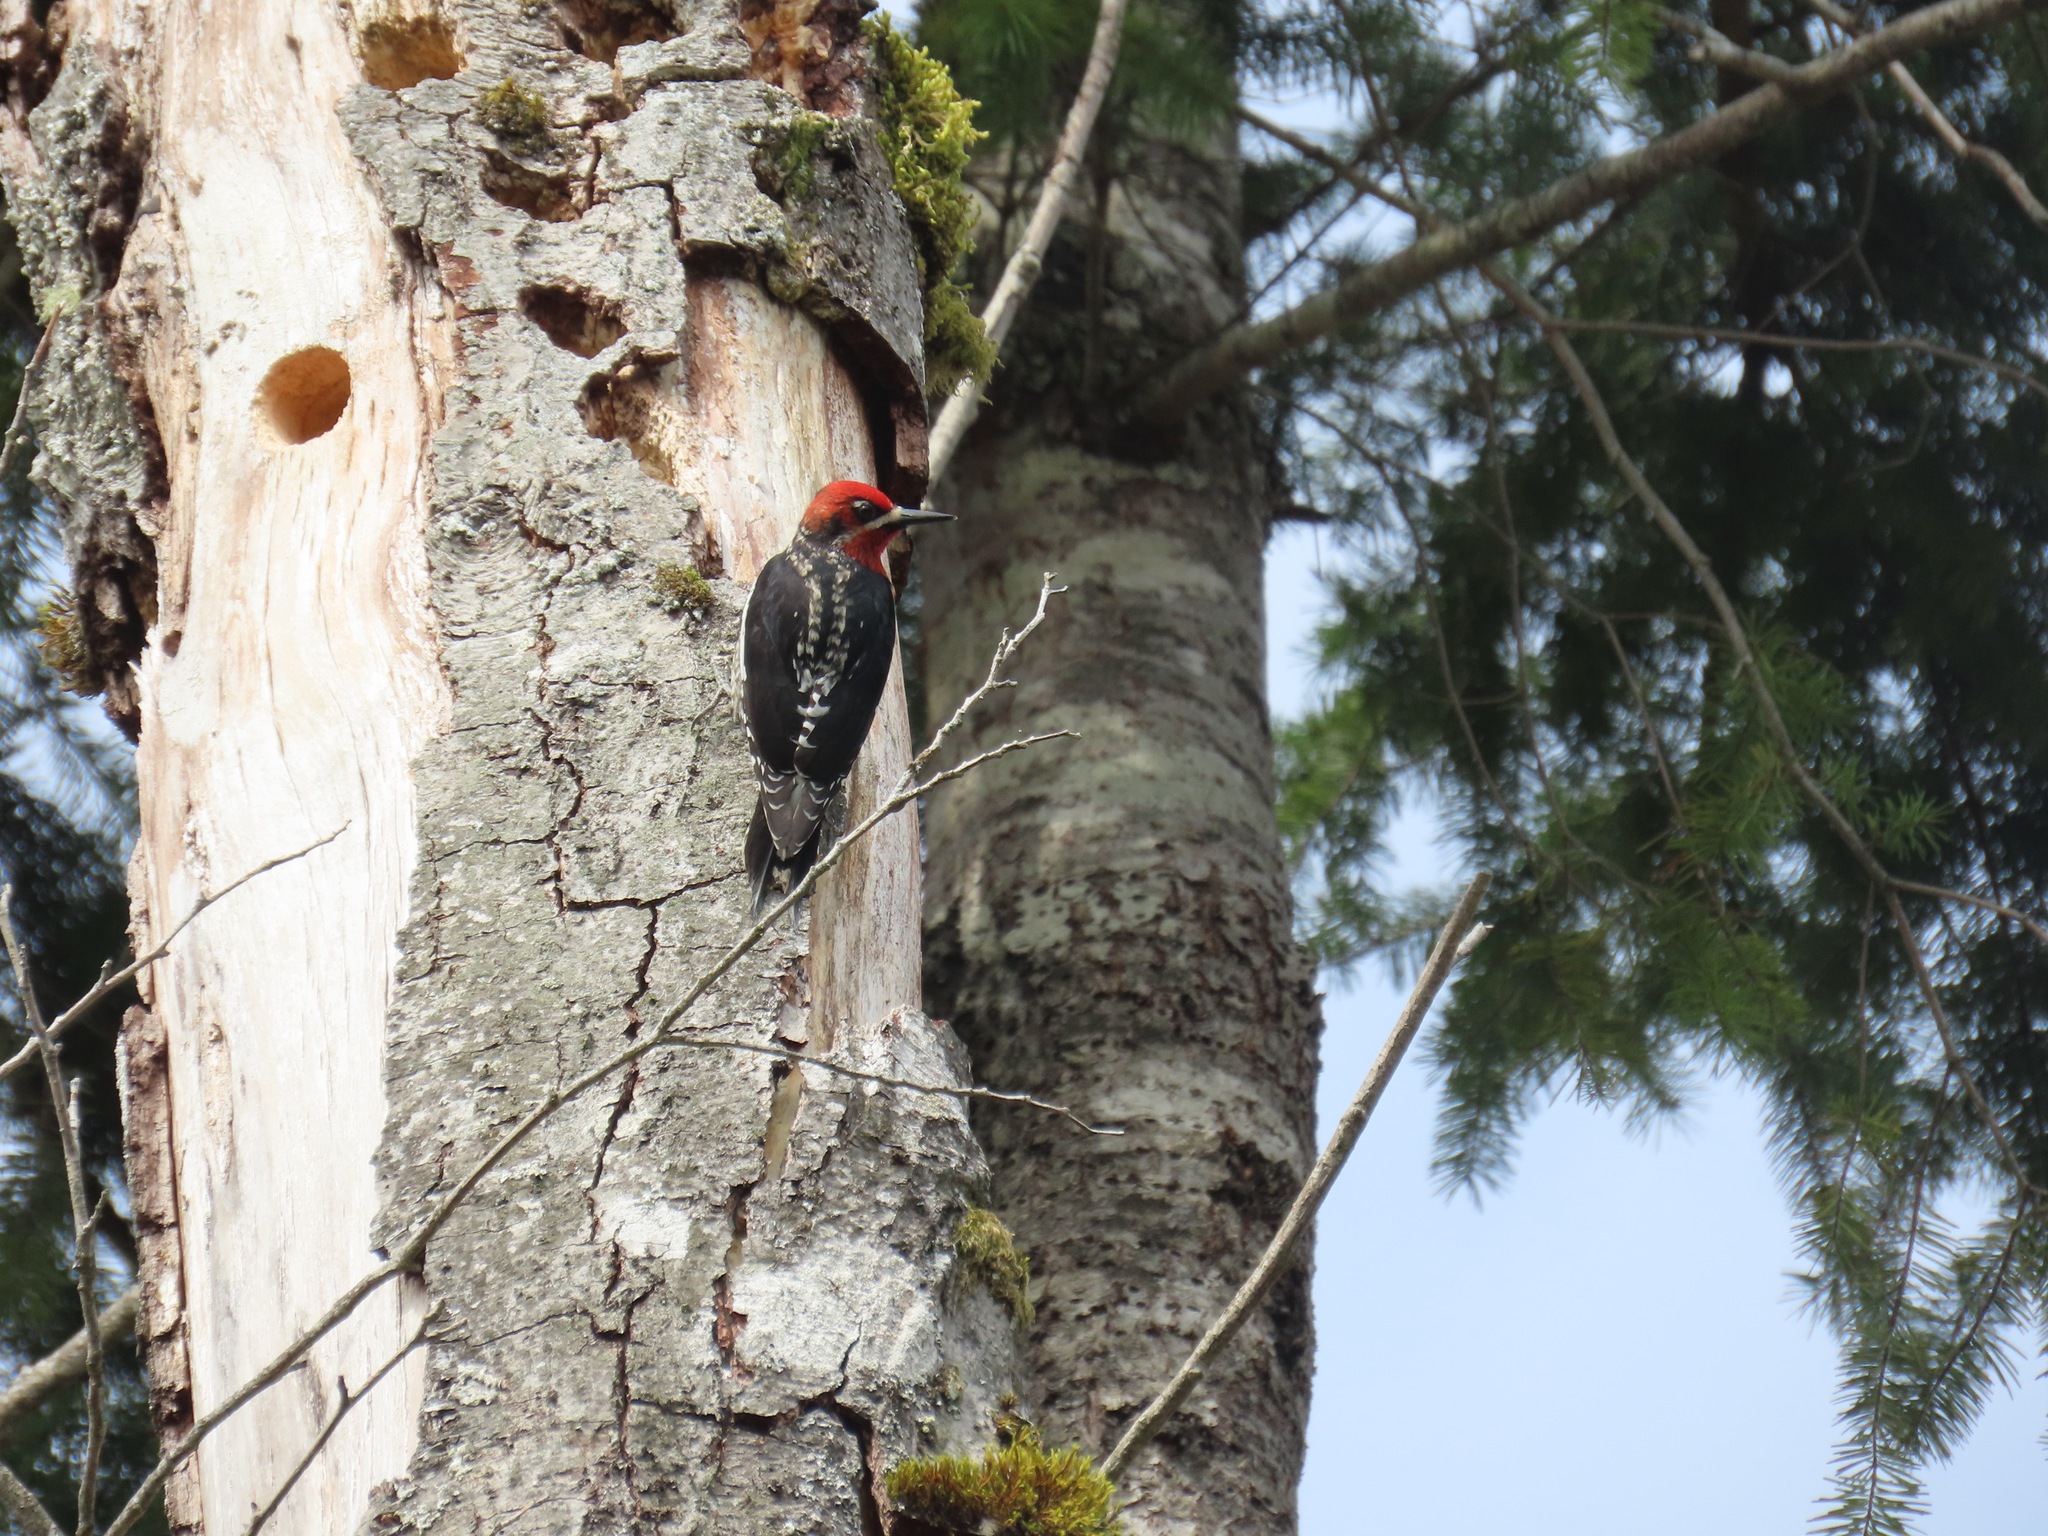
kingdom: Animalia
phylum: Chordata
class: Aves
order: Piciformes
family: Picidae
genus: Sphyrapicus
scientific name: Sphyrapicus ruber
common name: Red-breasted sapsucker
